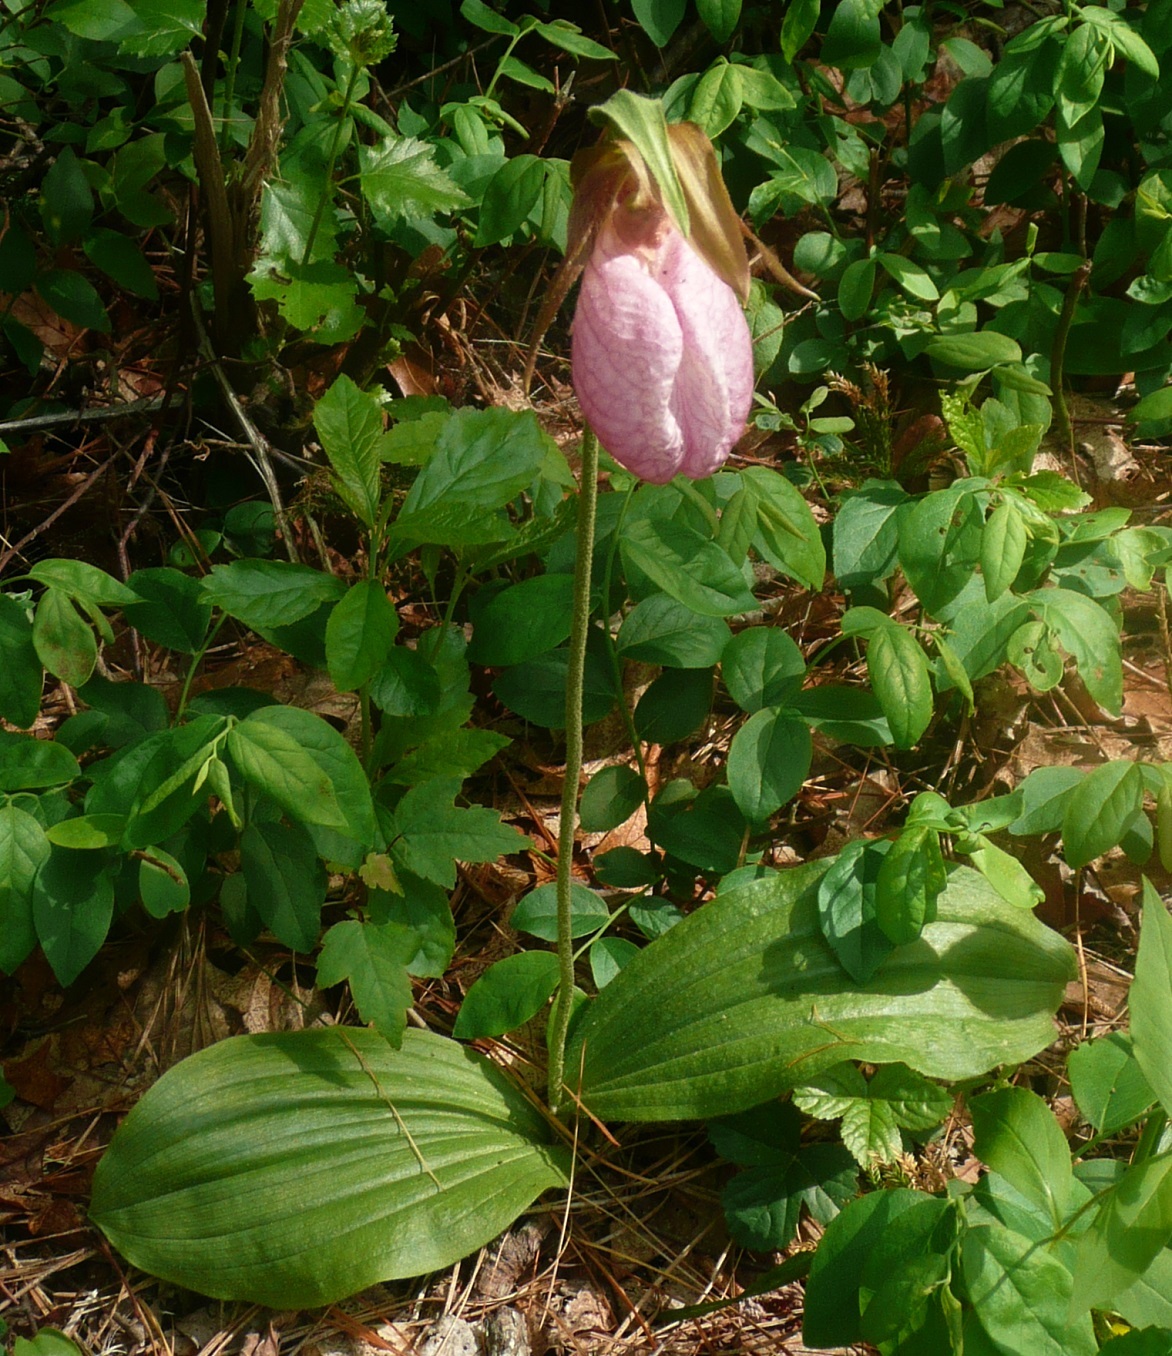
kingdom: Plantae
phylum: Tracheophyta
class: Liliopsida
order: Asparagales
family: Orchidaceae
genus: Cypripedium
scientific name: Cypripedium acaule
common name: Pink lady's-slipper
